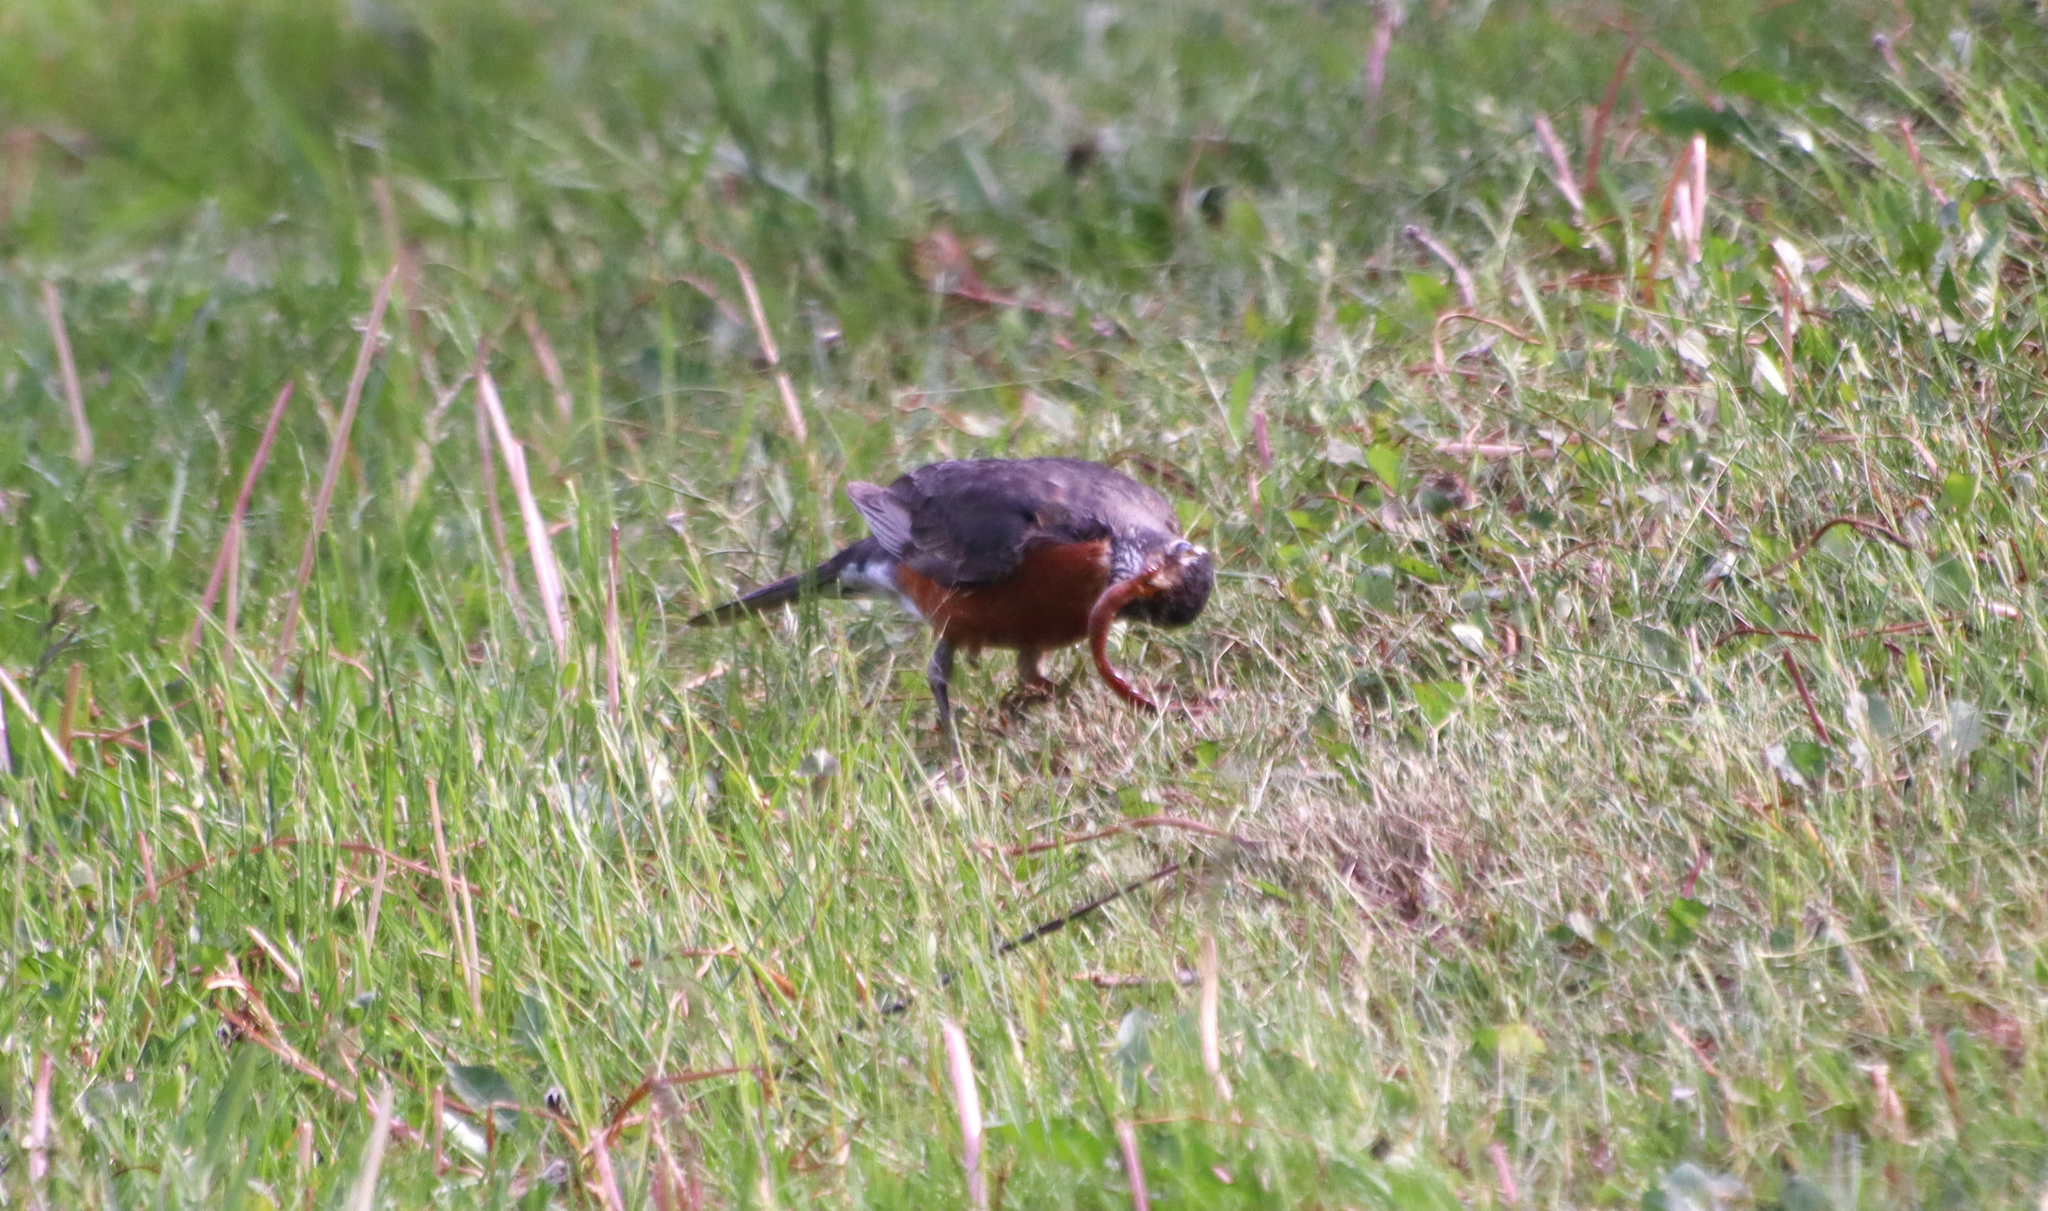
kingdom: Animalia
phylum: Chordata
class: Aves
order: Passeriformes
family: Turdidae
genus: Turdus
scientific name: Turdus migratorius
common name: American robin
